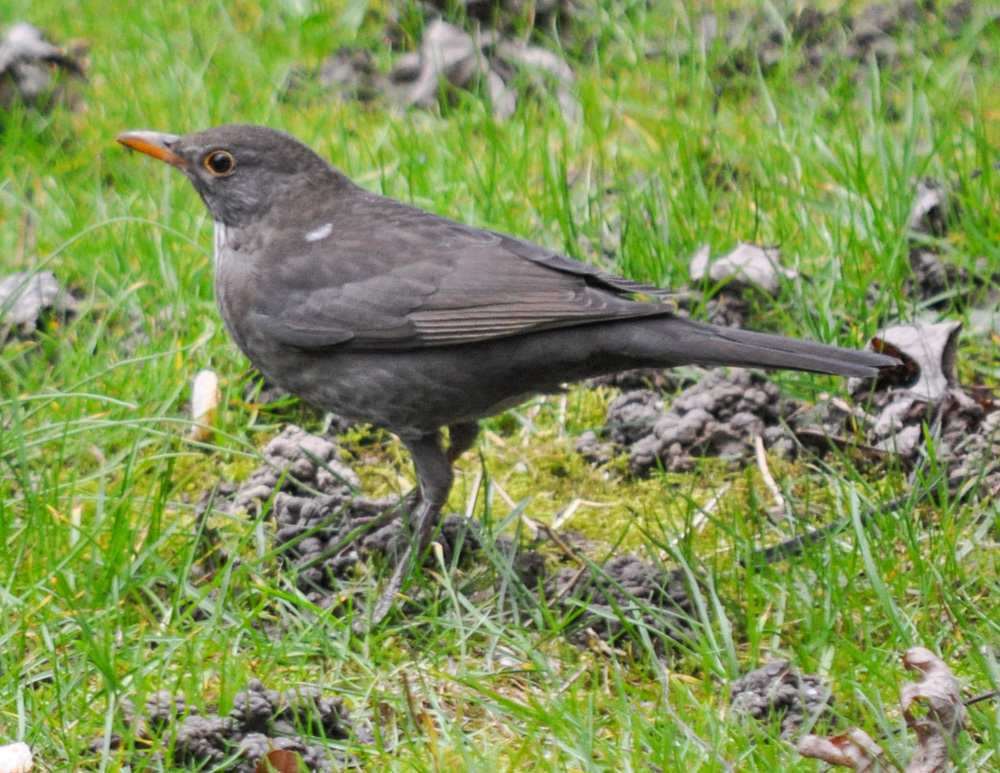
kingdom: Animalia
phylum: Chordata
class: Aves
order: Passeriformes
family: Turdidae
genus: Turdus
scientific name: Turdus merula
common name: Common blackbird
